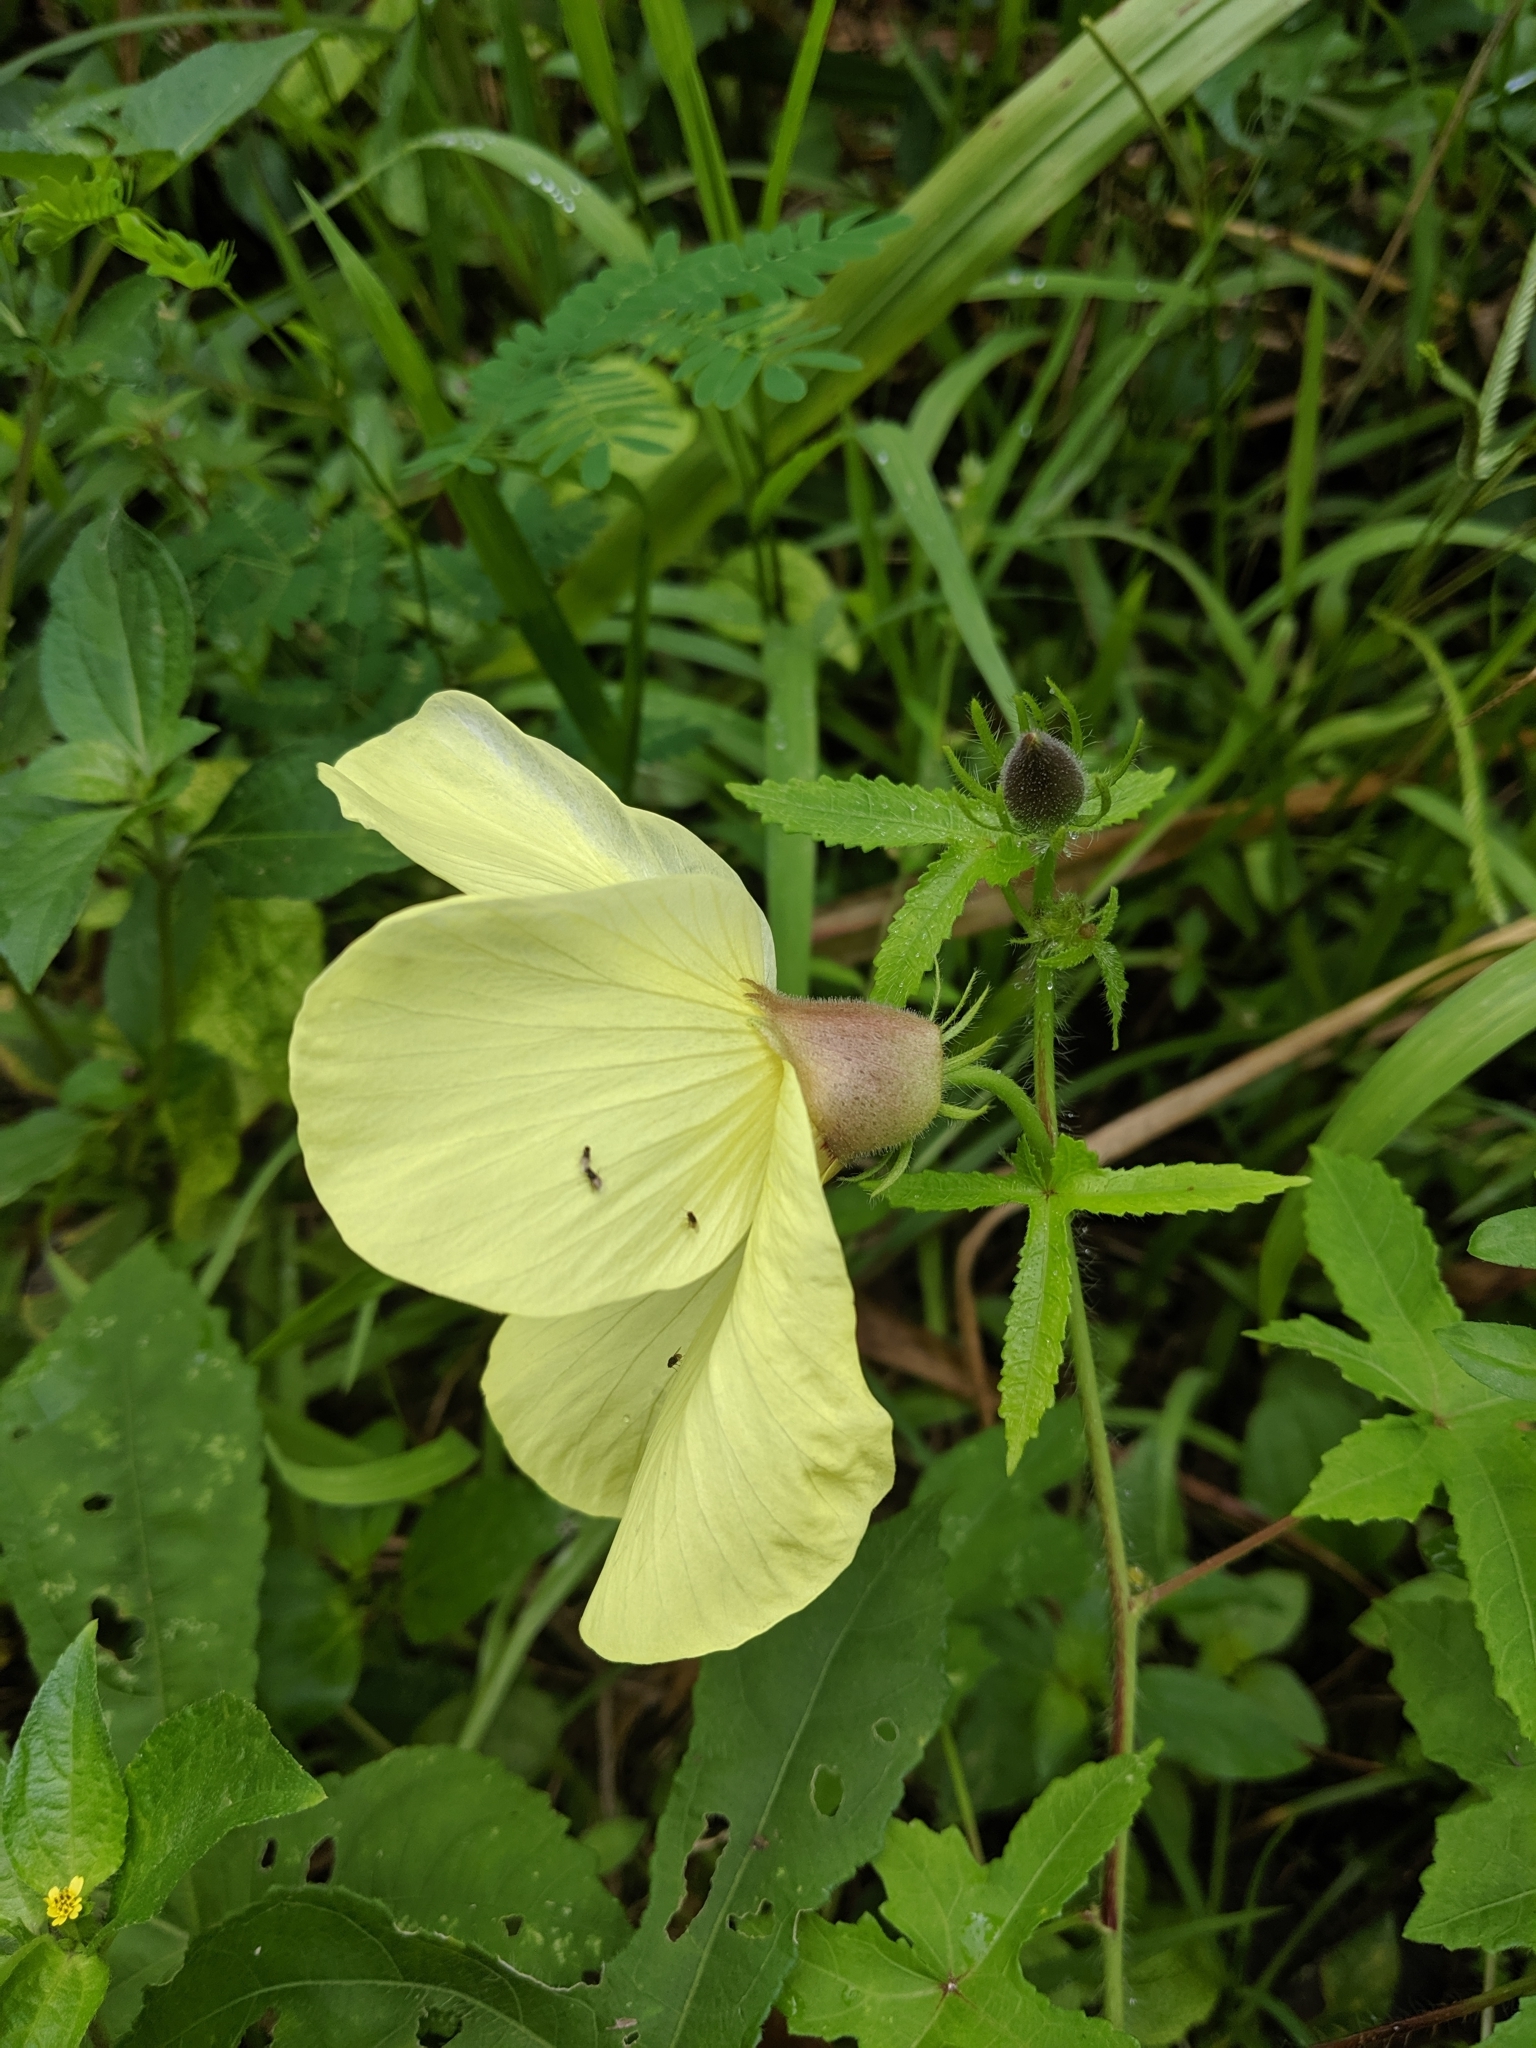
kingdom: Plantae
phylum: Tracheophyta
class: Magnoliopsida
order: Malvales
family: Malvaceae
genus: Abelmoschus
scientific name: Abelmoschus moschatus
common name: Musk okra
